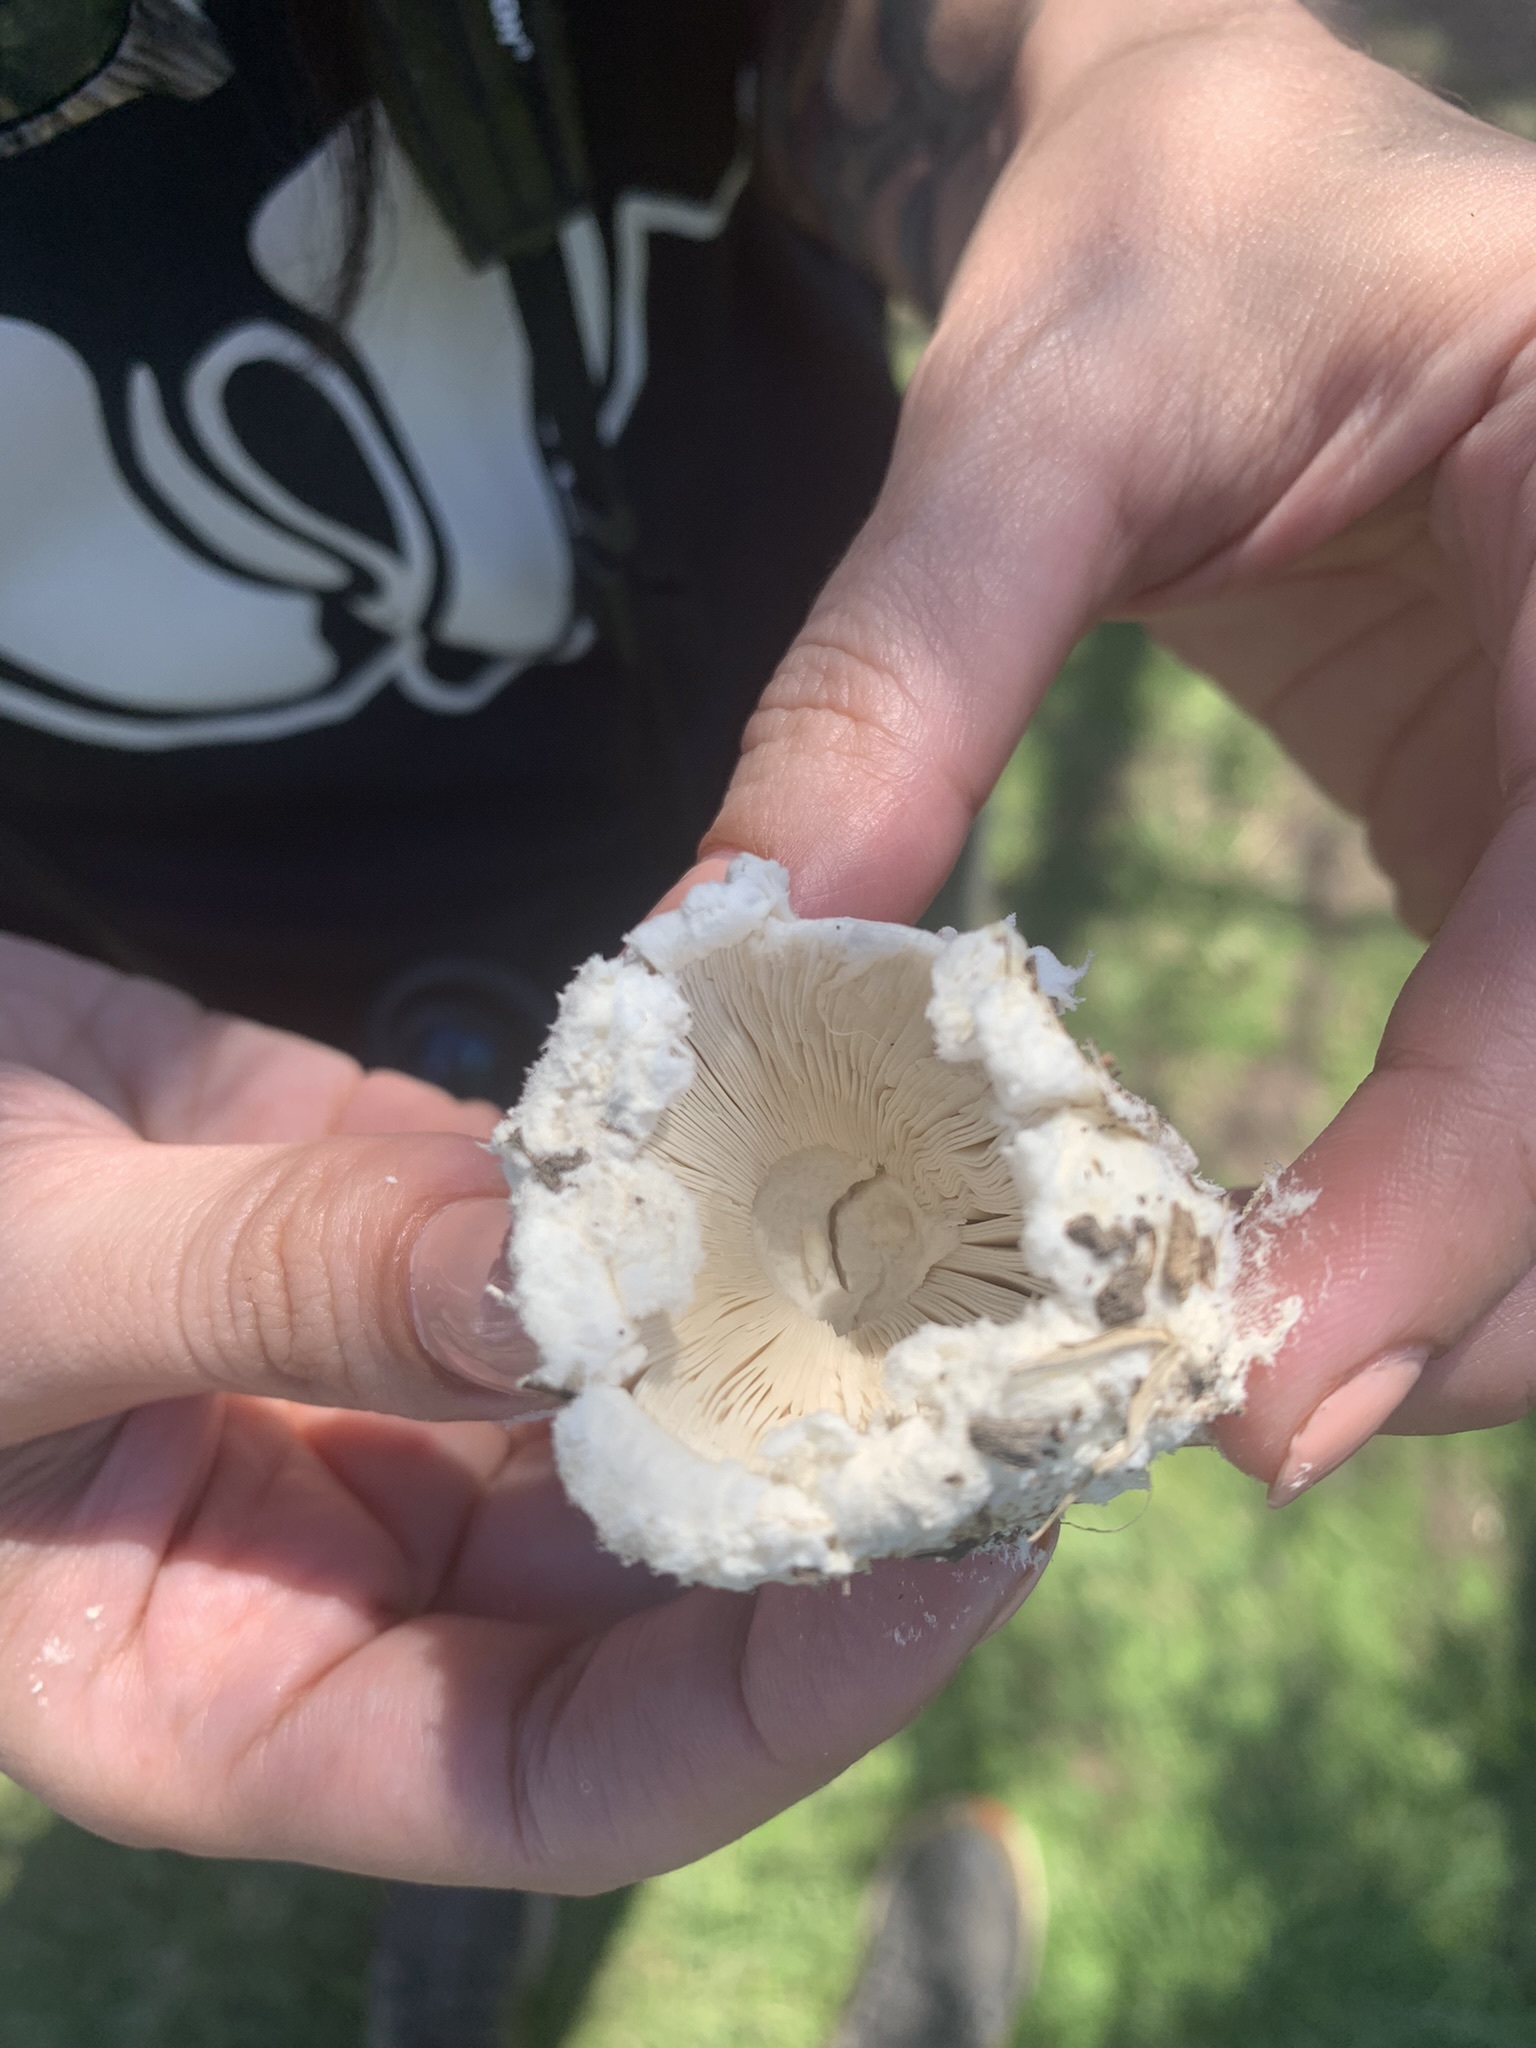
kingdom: Fungi
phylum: Basidiomycota
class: Agaricomycetes
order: Agaricales
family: Amanitaceae
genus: Aspidella
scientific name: Aspidella foetens
